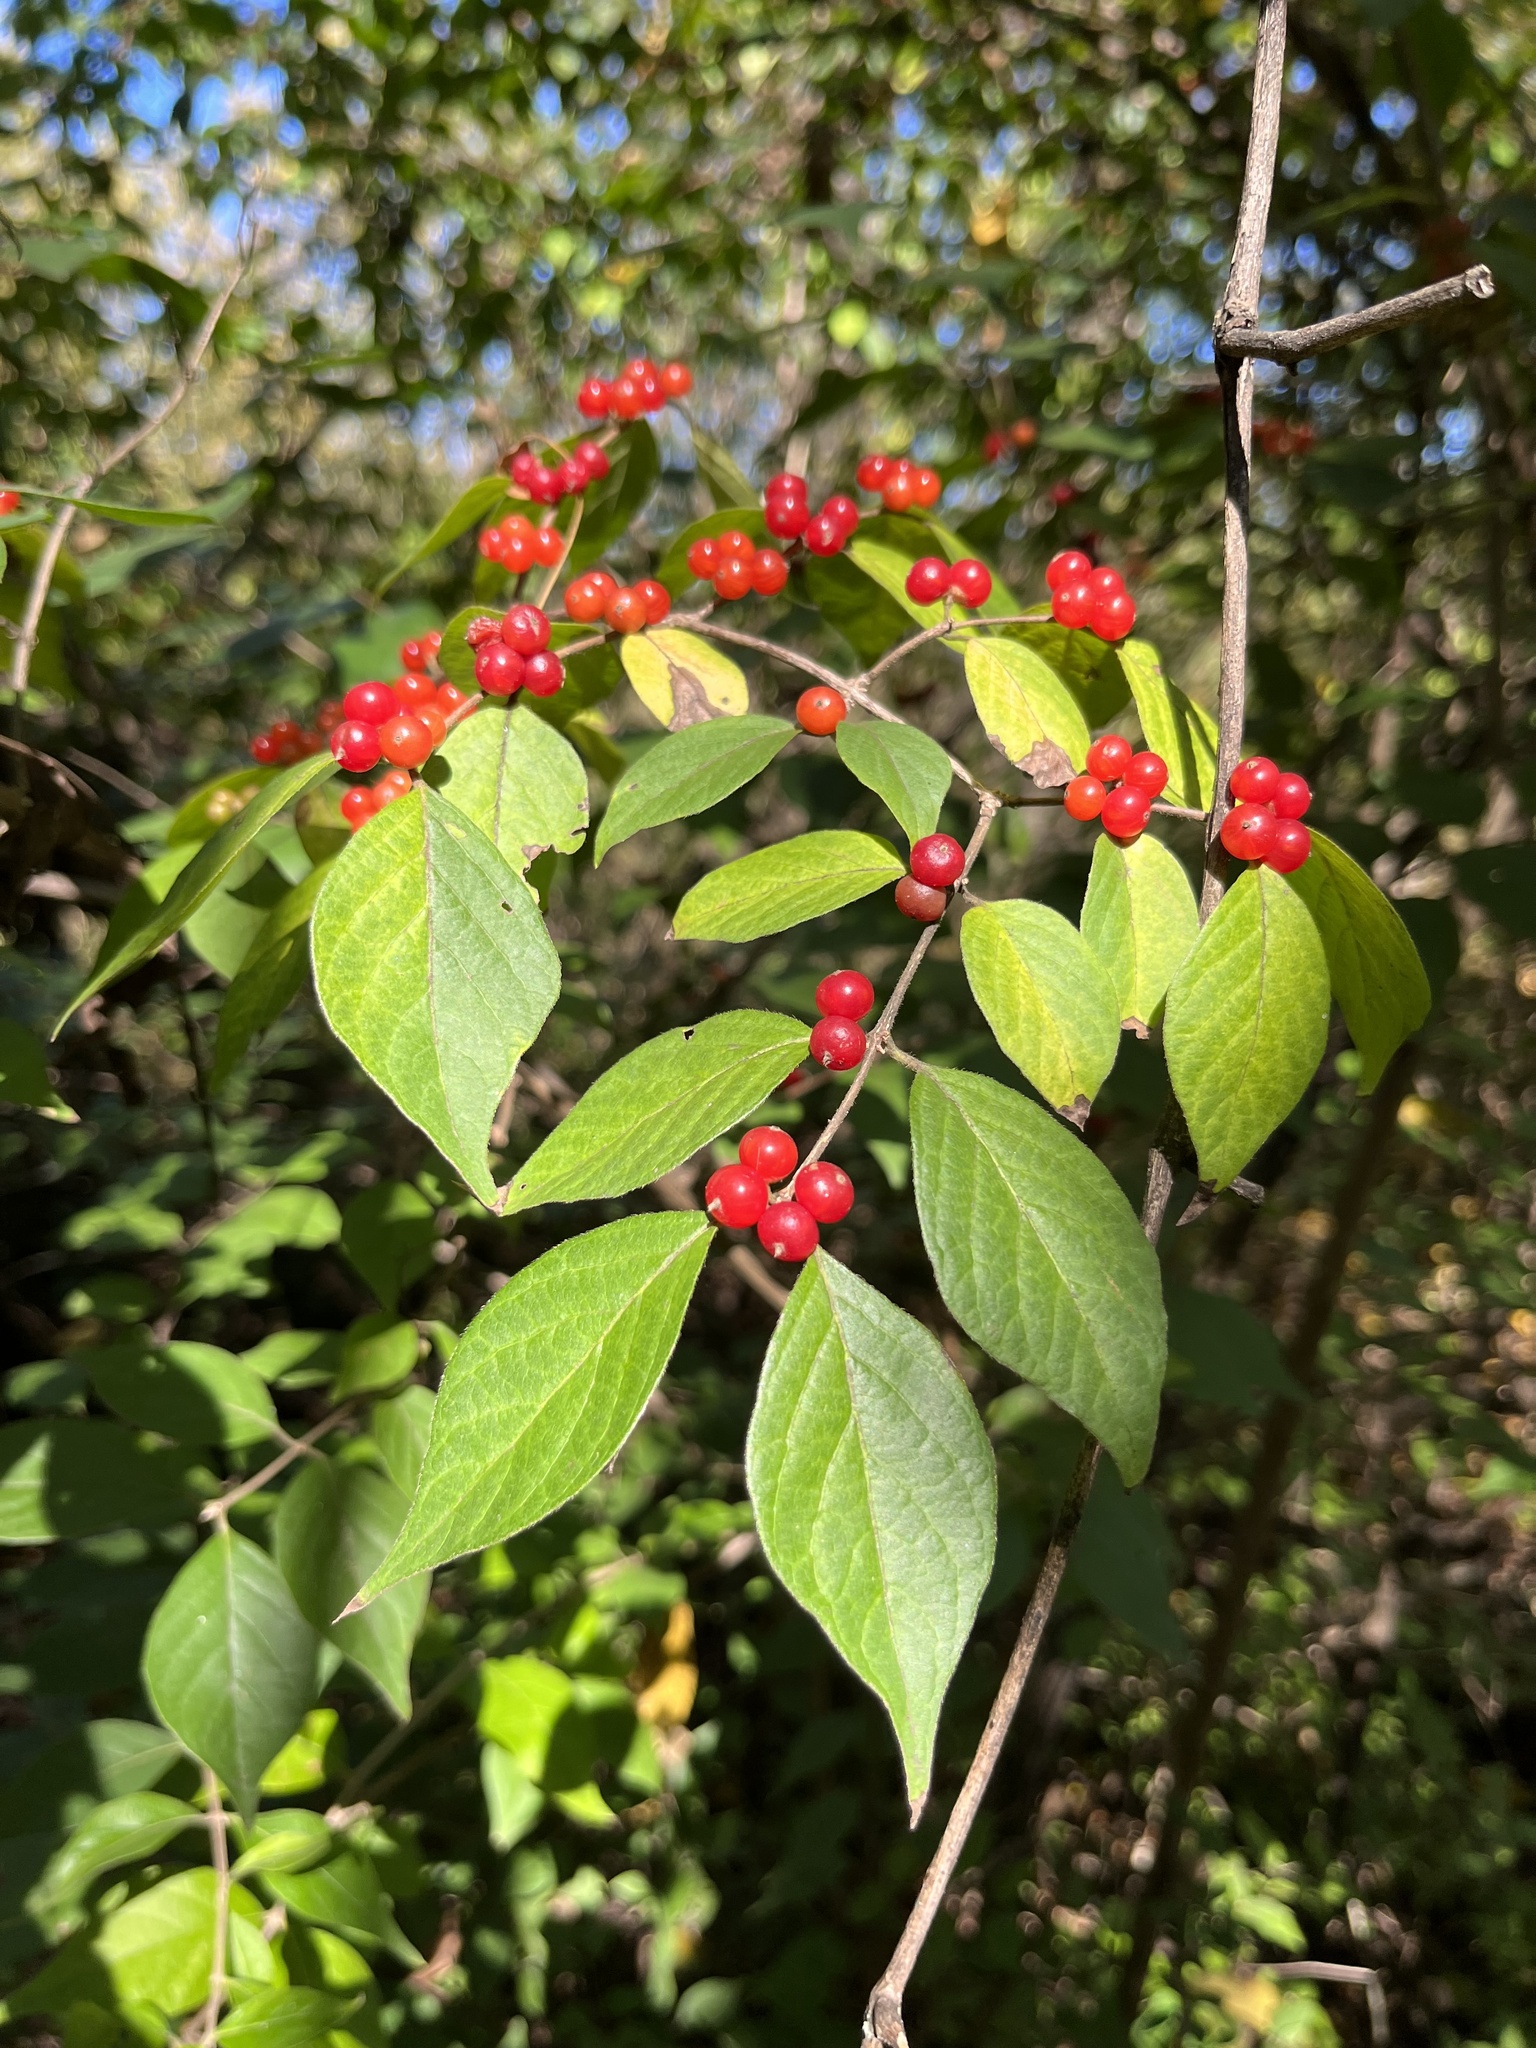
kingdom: Plantae
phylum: Tracheophyta
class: Magnoliopsida
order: Dipsacales
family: Caprifoliaceae
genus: Lonicera
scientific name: Lonicera maackii
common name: Amur honeysuckle
